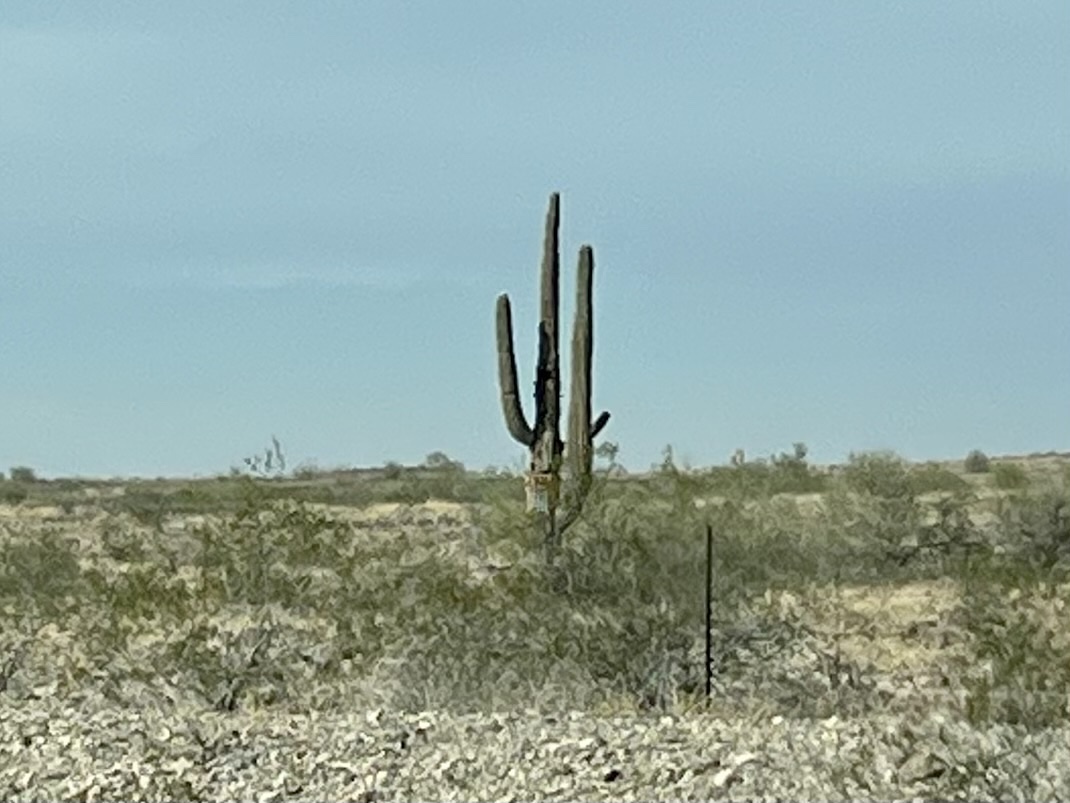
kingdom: Plantae
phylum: Tracheophyta
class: Magnoliopsida
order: Caryophyllales
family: Cactaceae
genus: Carnegiea
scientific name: Carnegiea gigantea
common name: Saguaro
